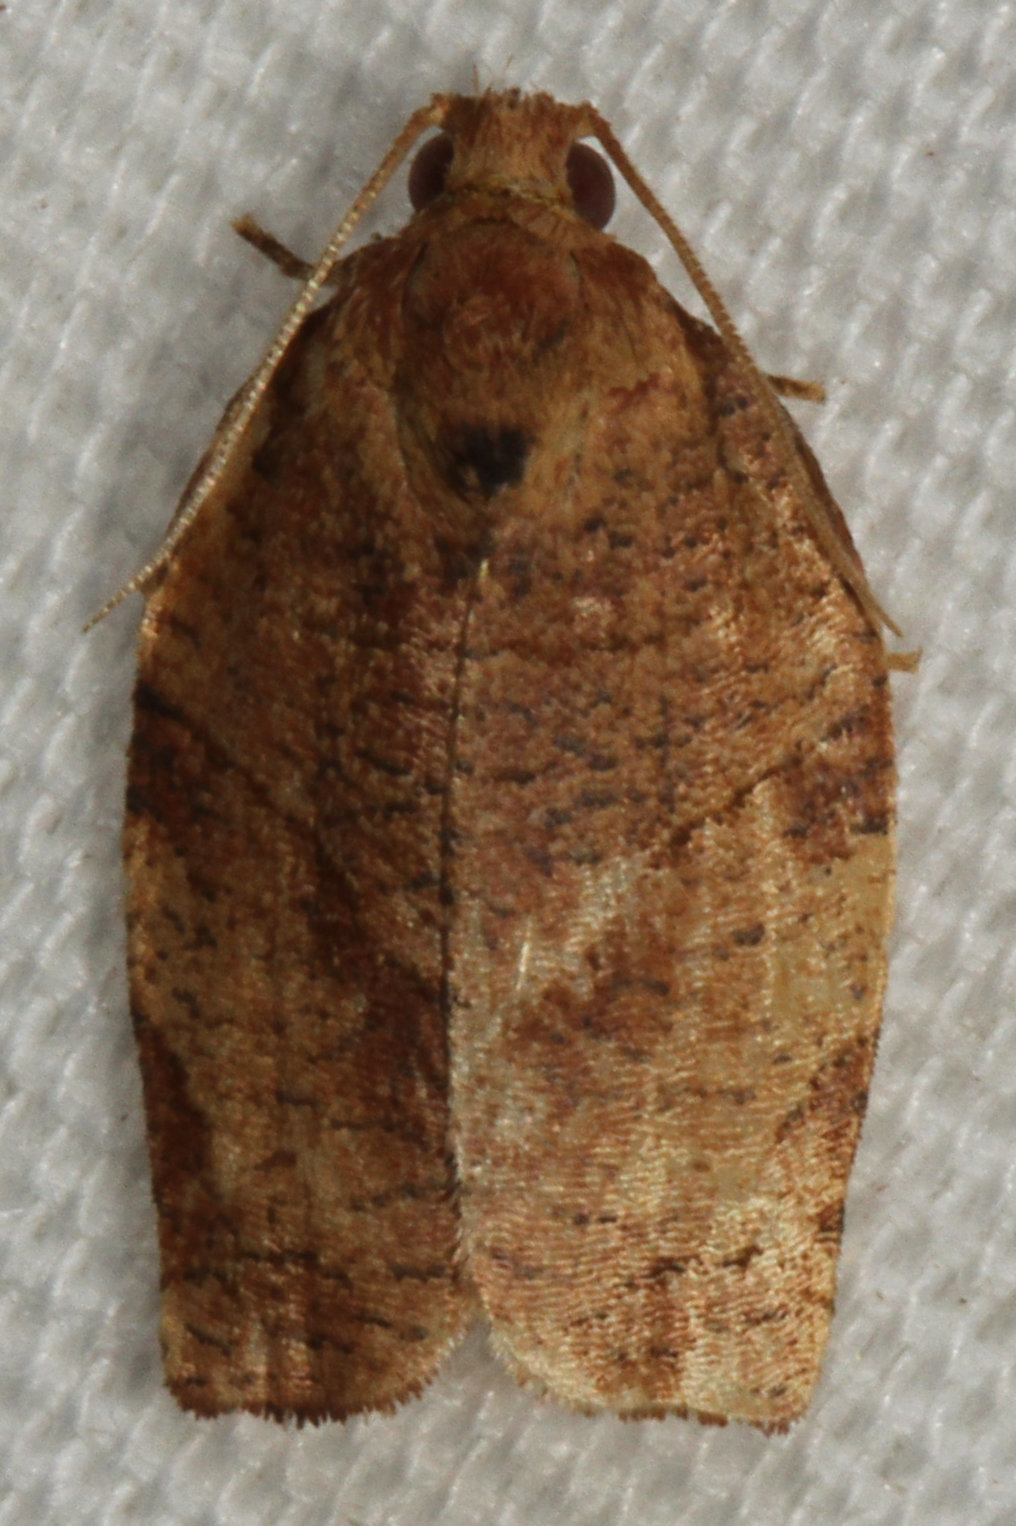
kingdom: Animalia
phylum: Arthropoda
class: Insecta
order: Lepidoptera
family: Tortricidae
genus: Choristoneura
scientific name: Choristoneura rosaceana
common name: Oblique-banded leafroller moth
